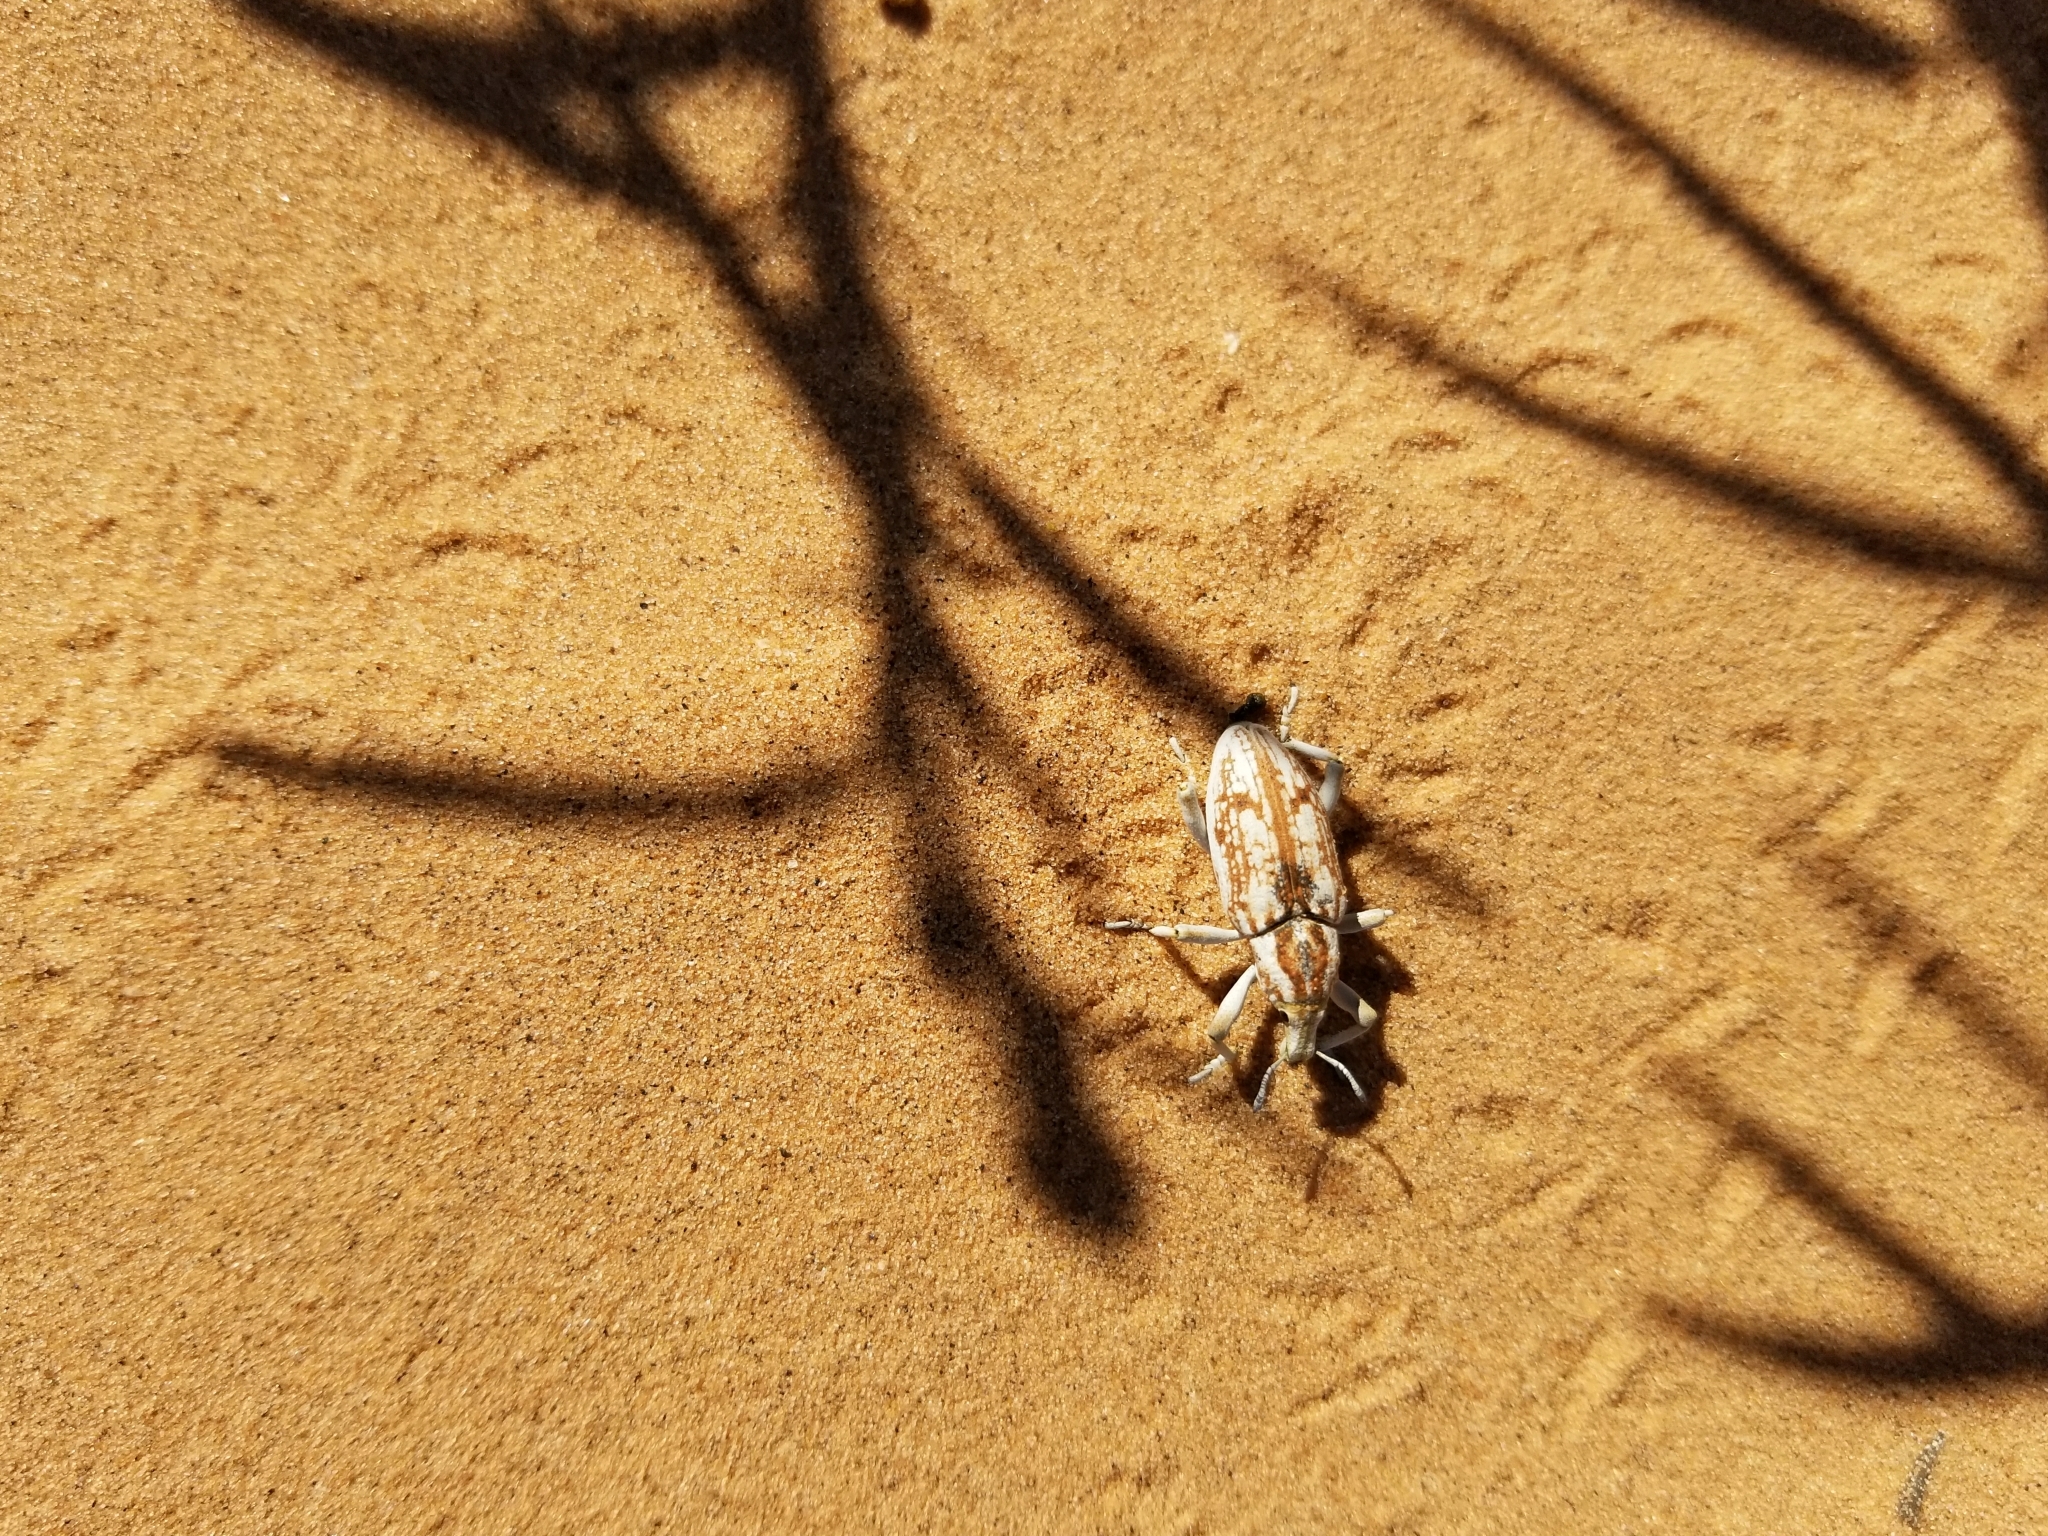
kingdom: Animalia
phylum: Arthropoda
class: Insecta
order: Coleoptera
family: Curculionidae
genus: Apleurus
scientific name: Apleurus albovestitus
